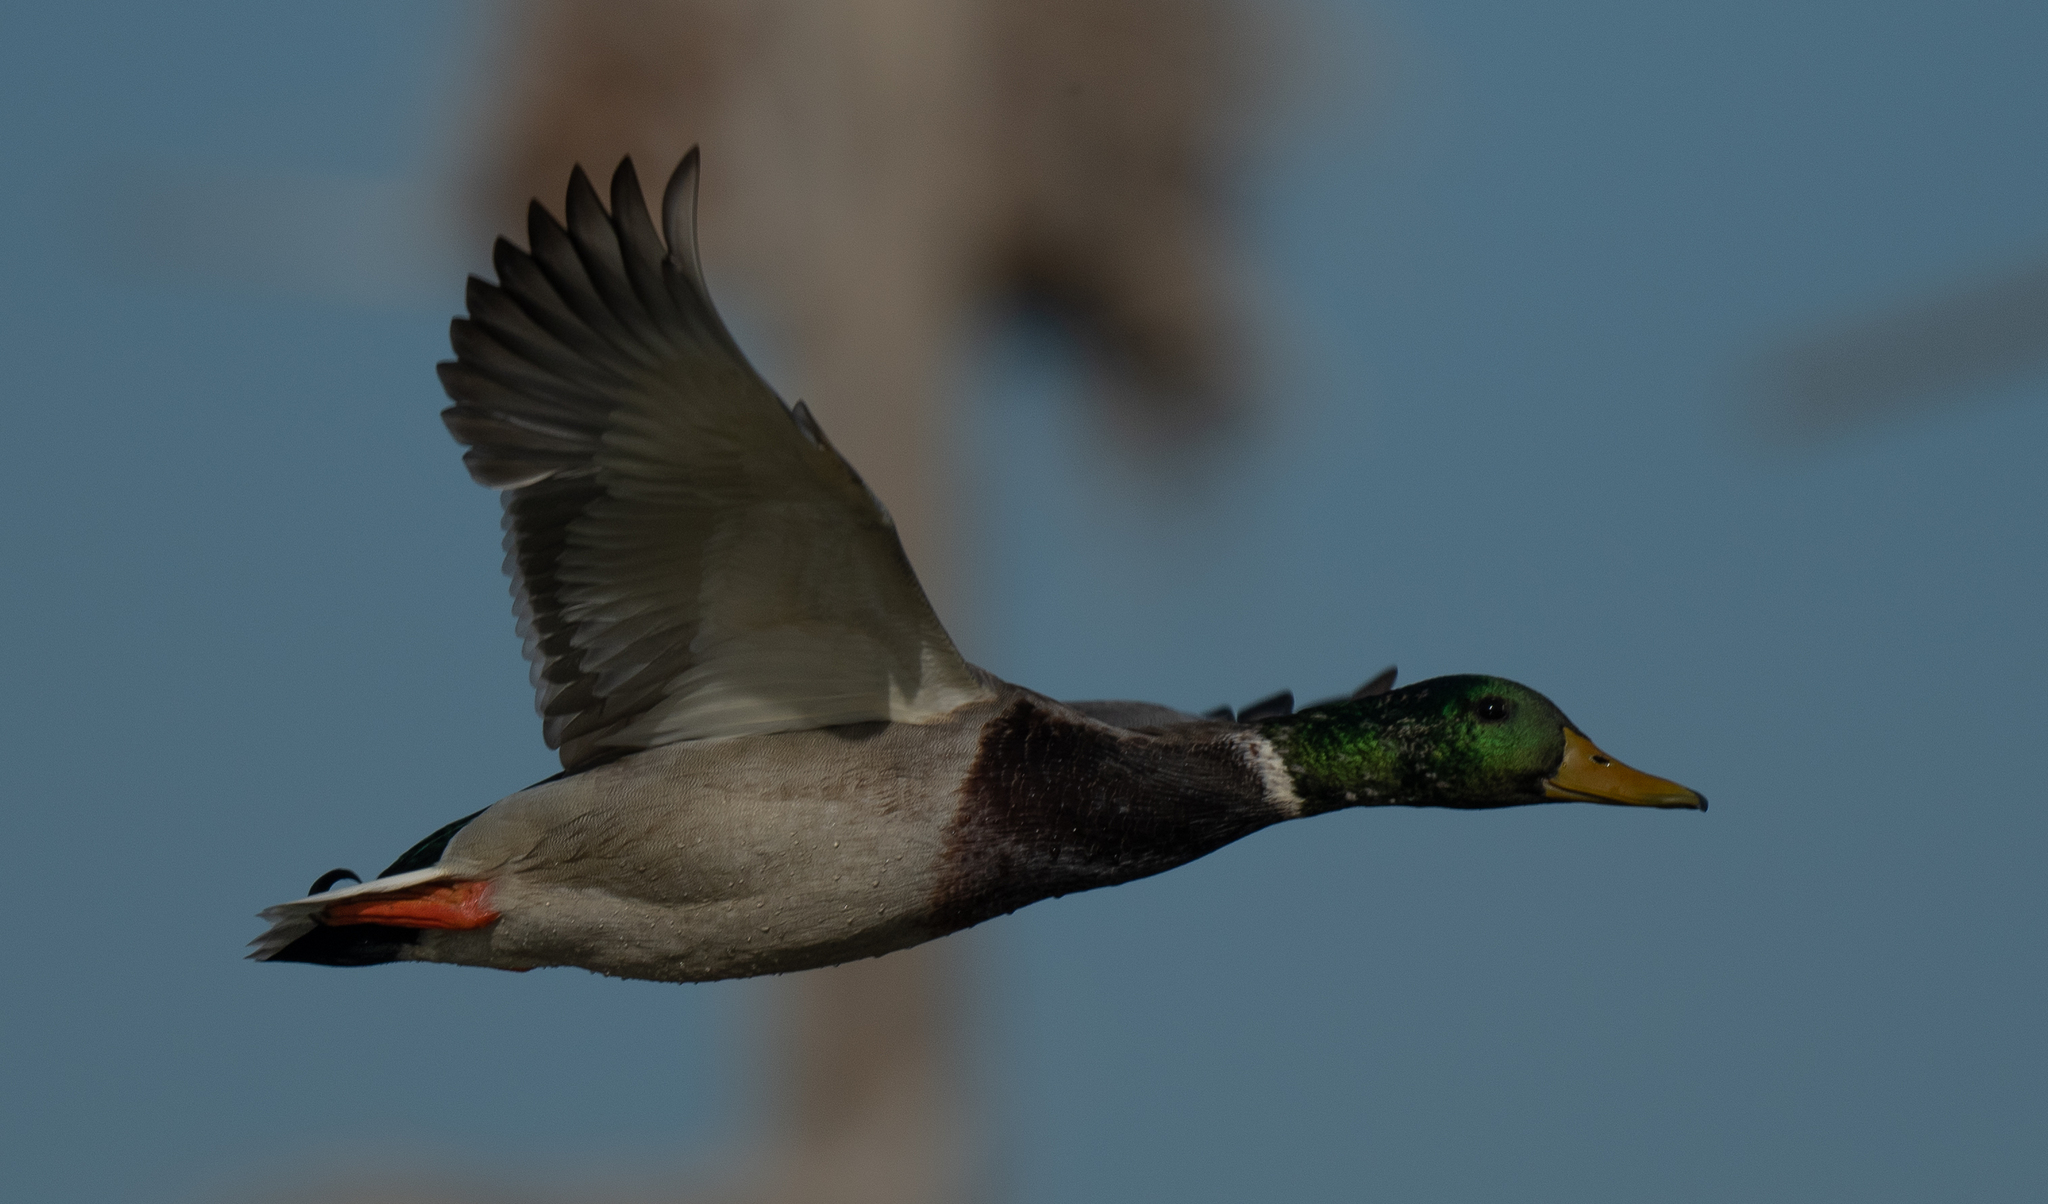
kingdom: Animalia
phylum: Chordata
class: Aves
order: Anseriformes
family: Anatidae
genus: Anas
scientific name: Anas platyrhynchos
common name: Mallard
